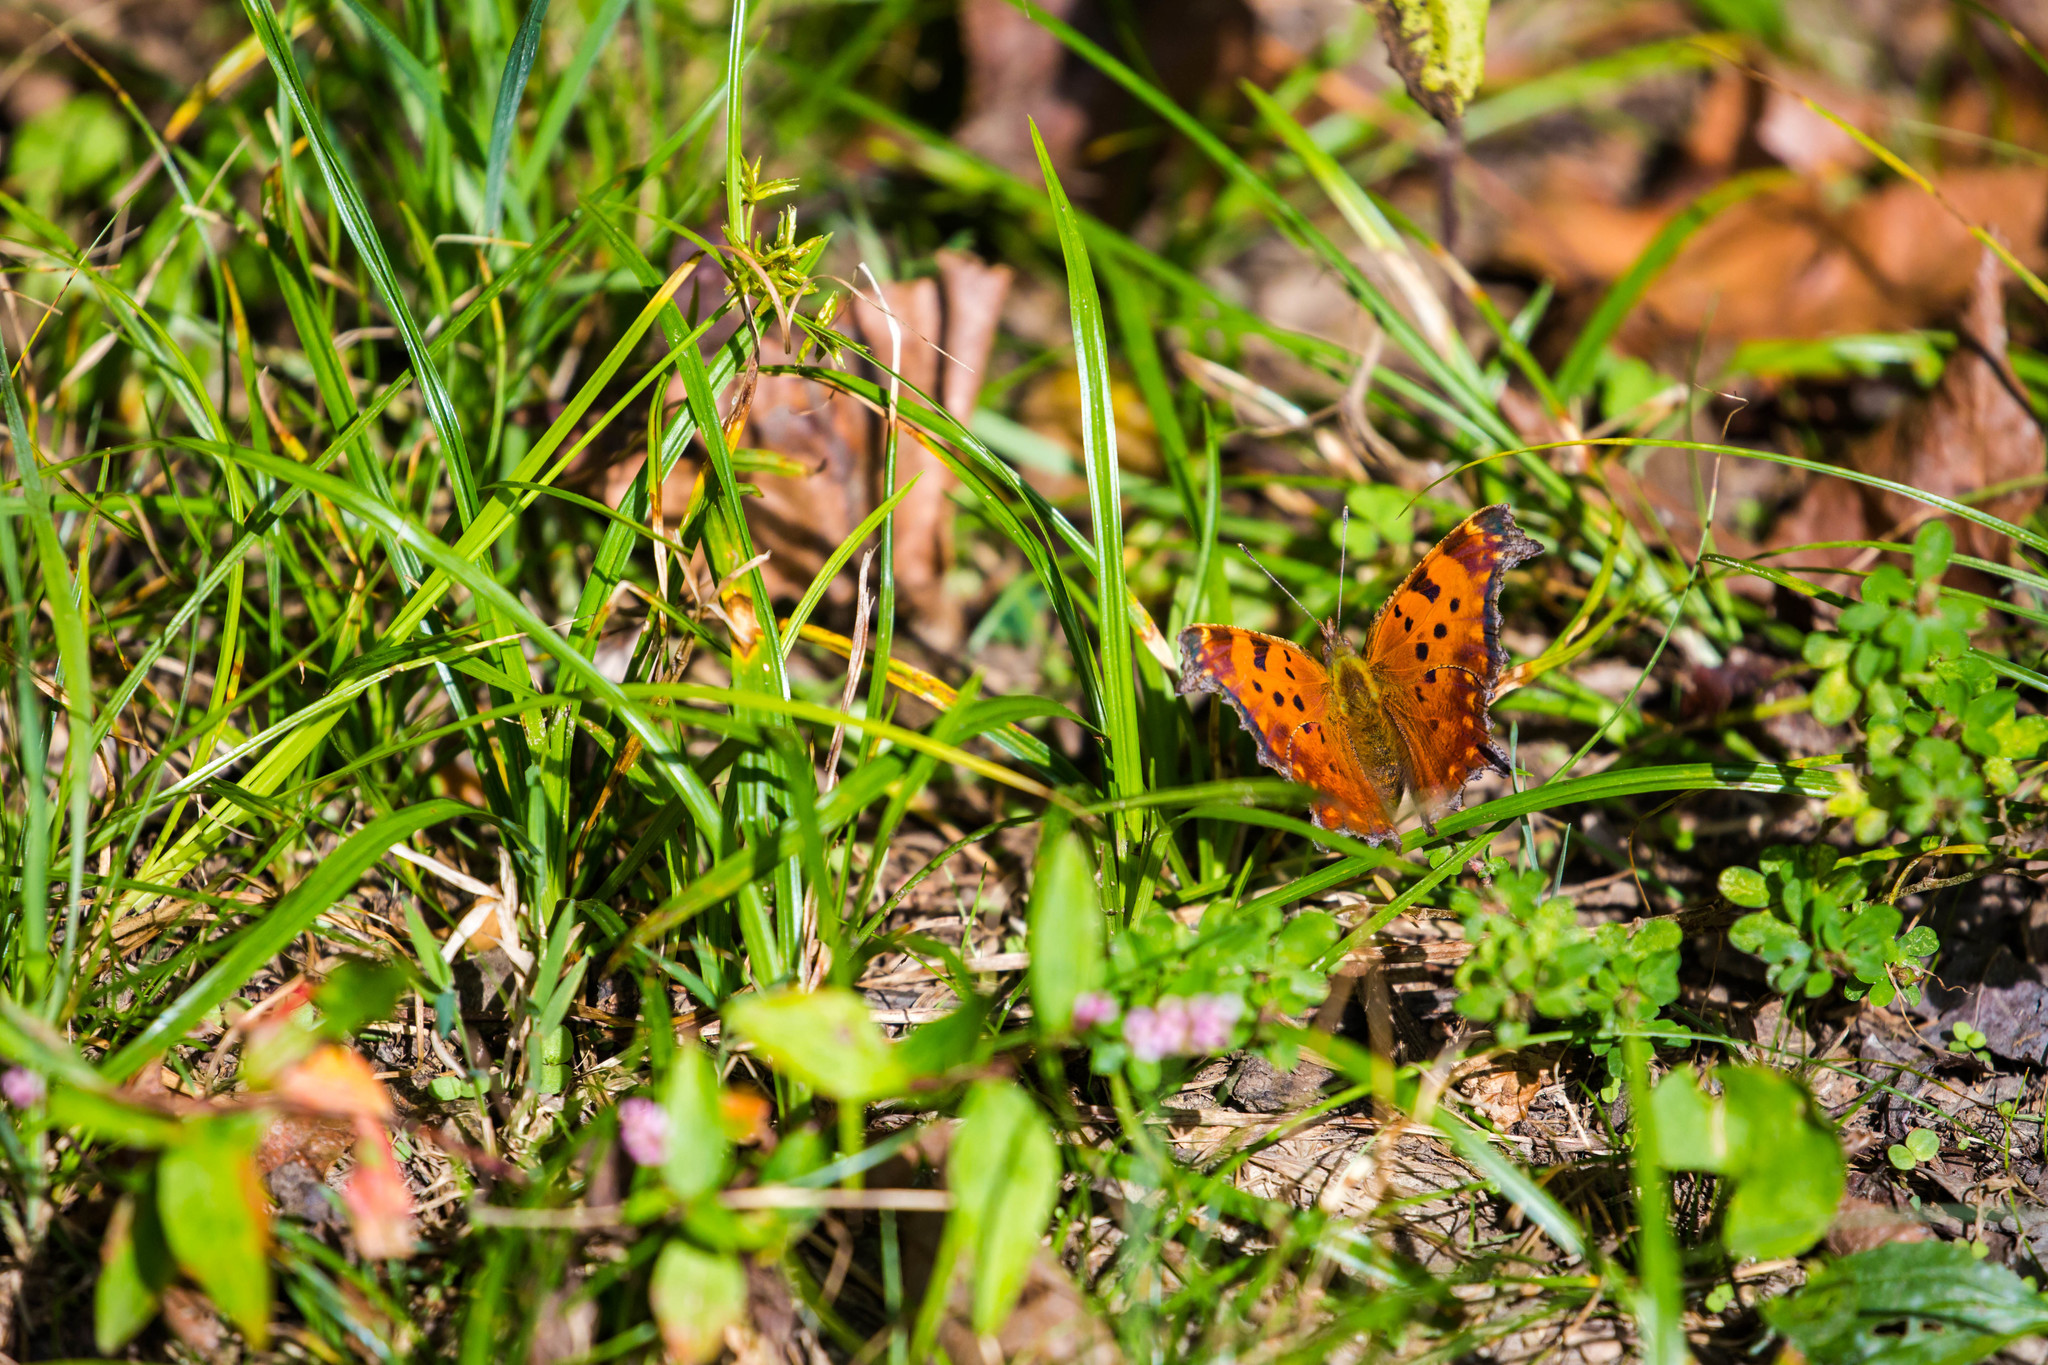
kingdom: Animalia
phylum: Arthropoda
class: Insecta
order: Lepidoptera
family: Nymphalidae
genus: Polygonia
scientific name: Polygonia comma
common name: Eastern comma
